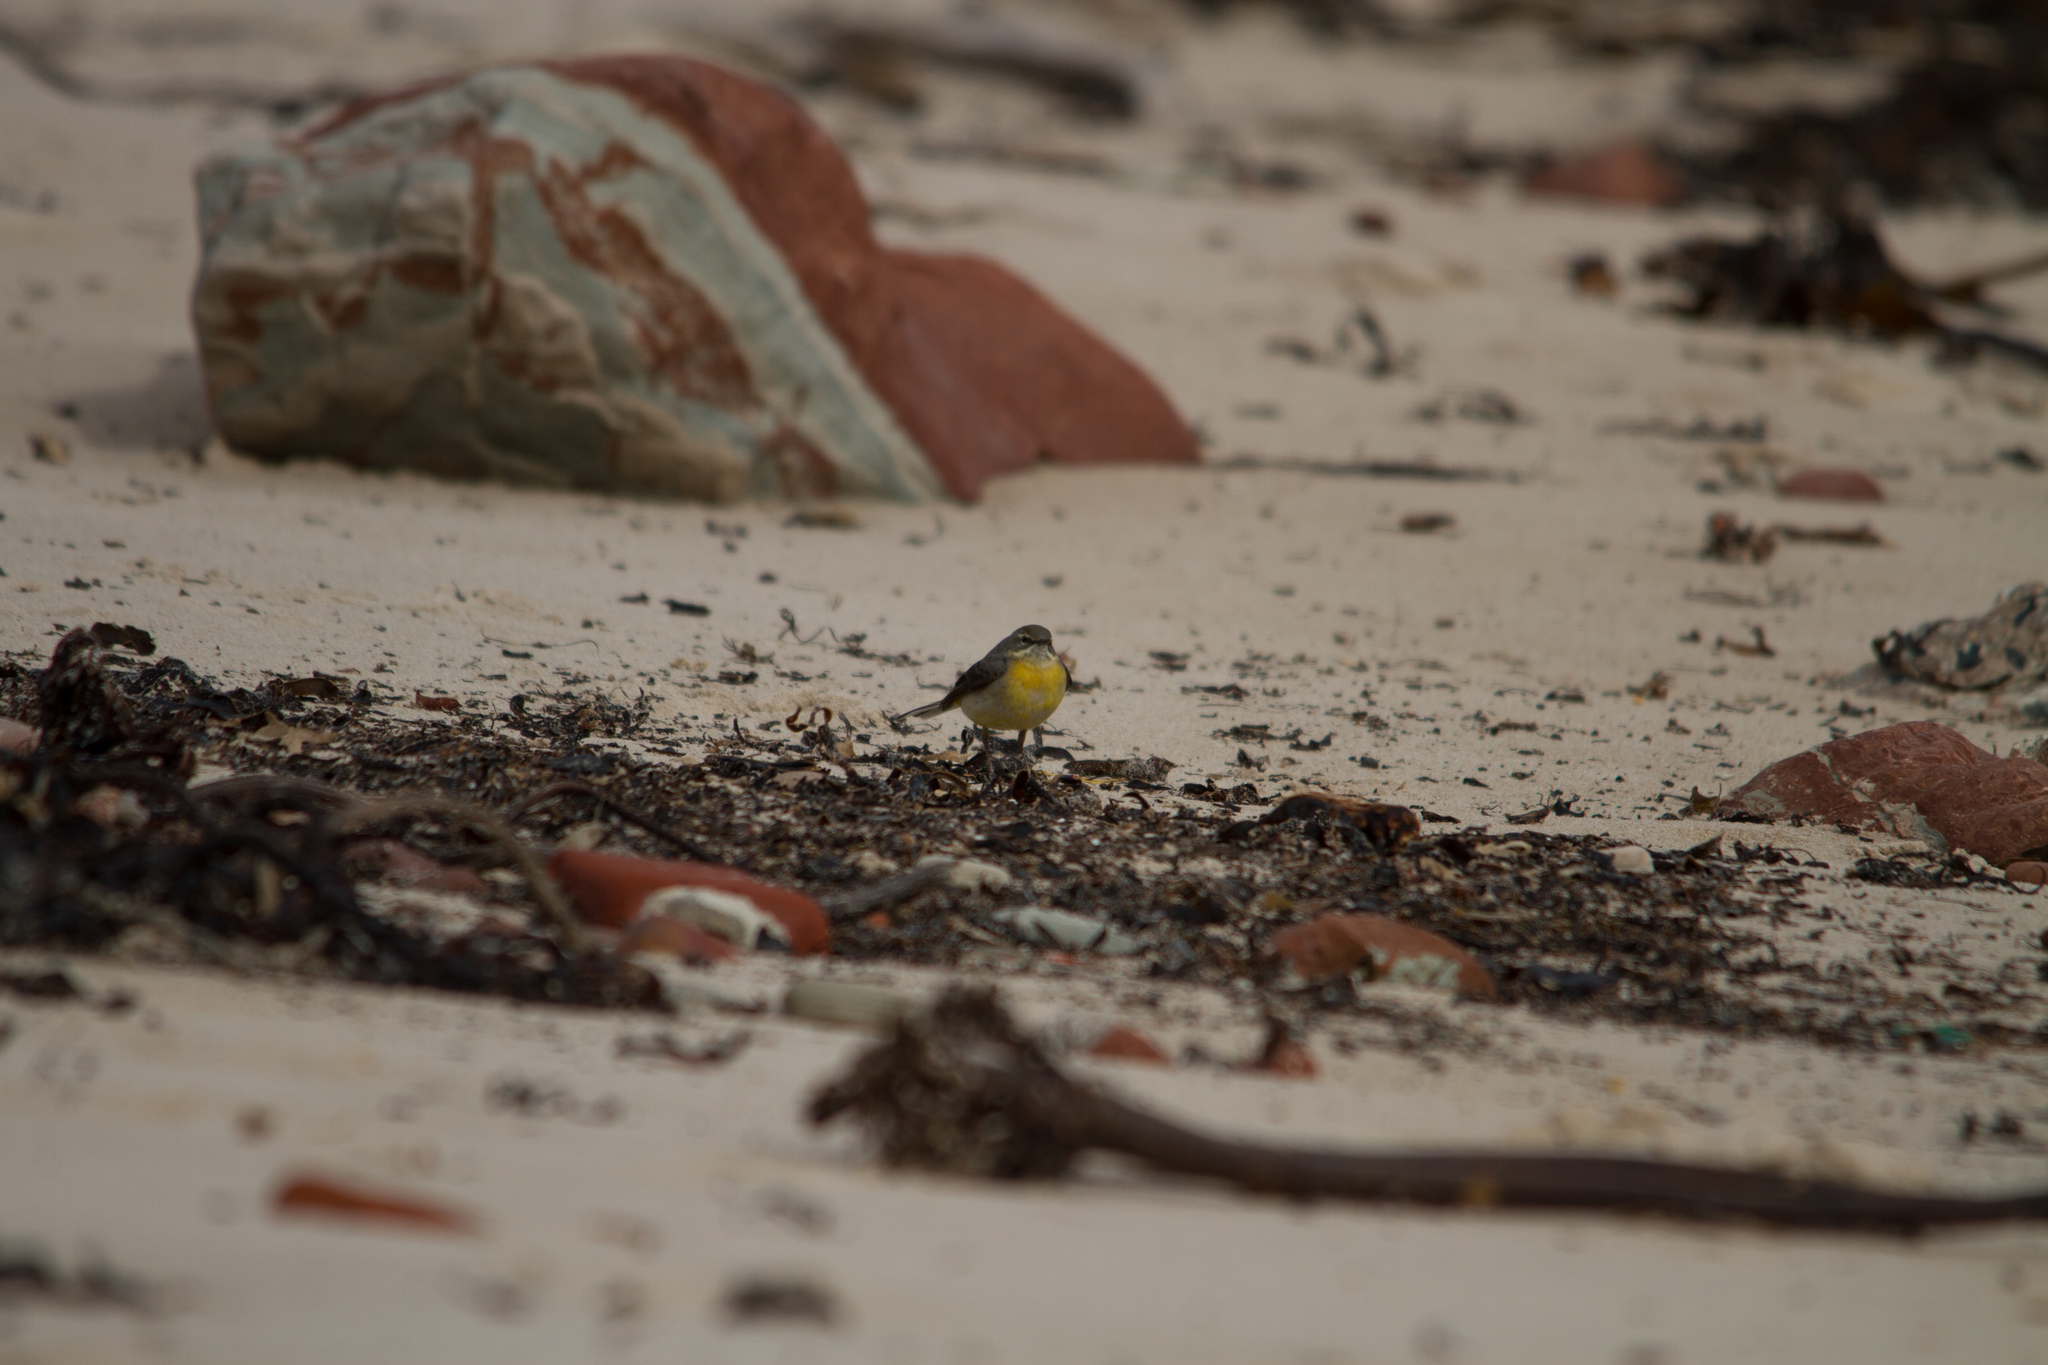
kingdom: Animalia
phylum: Chordata
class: Aves
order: Passeriformes
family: Motacillidae
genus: Motacilla
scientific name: Motacilla cinerea
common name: Grey wagtail
